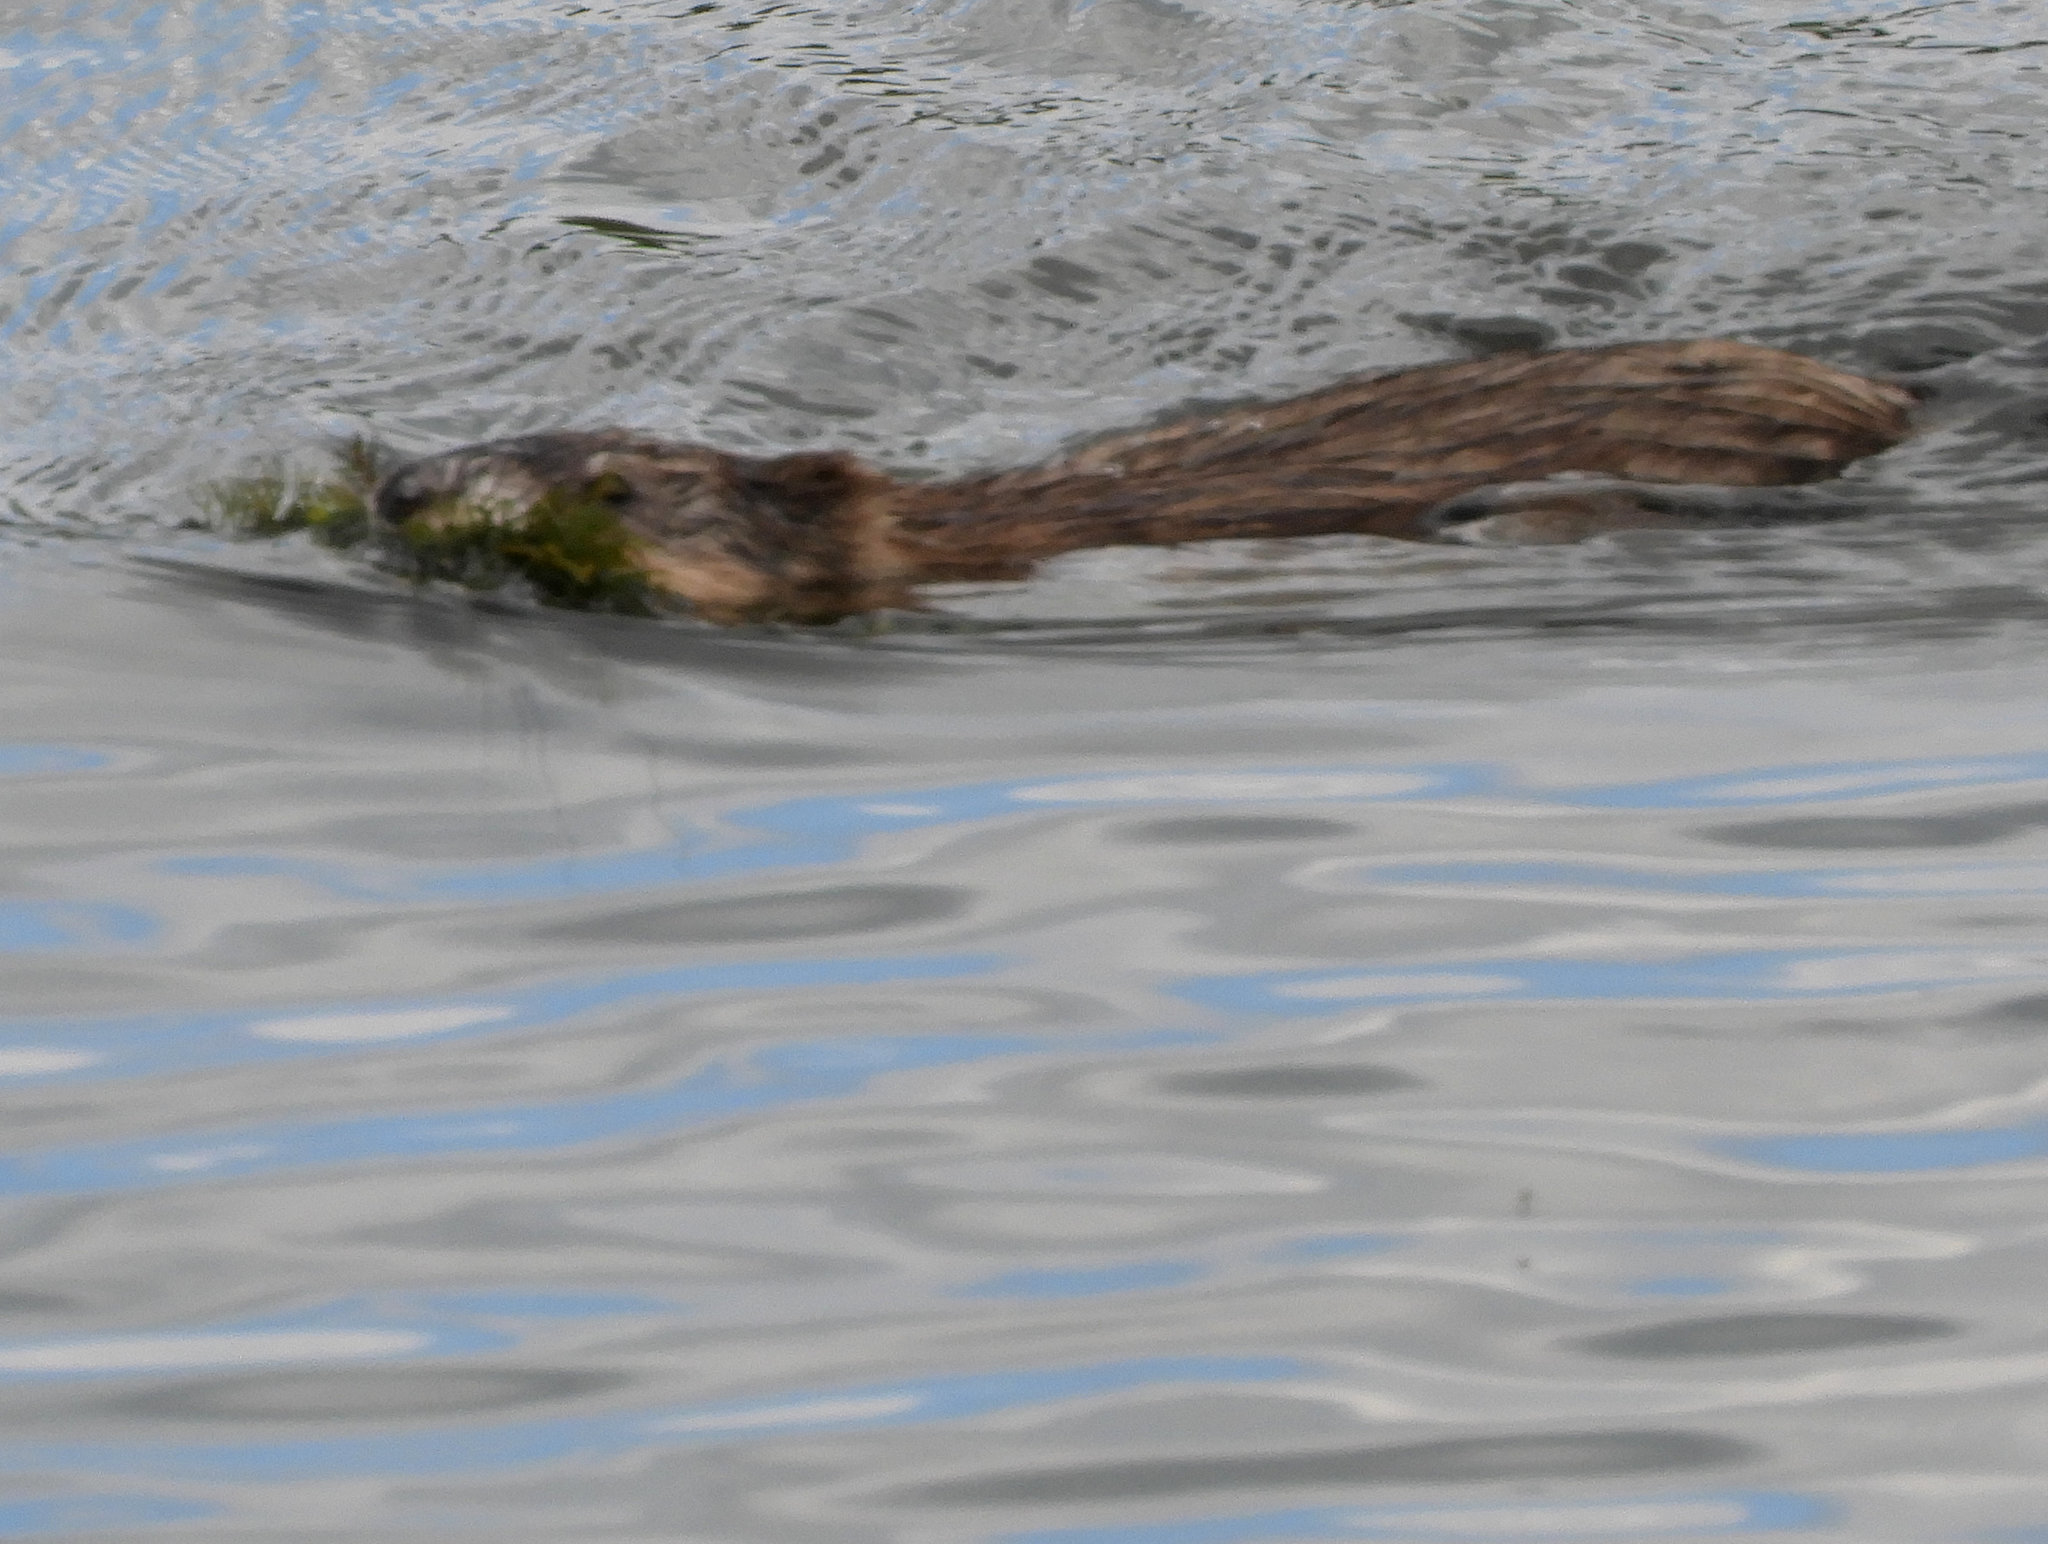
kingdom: Animalia
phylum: Chordata
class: Mammalia
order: Rodentia
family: Cricetidae
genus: Ondatra
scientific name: Ondatra zibethicus
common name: Muskrat
